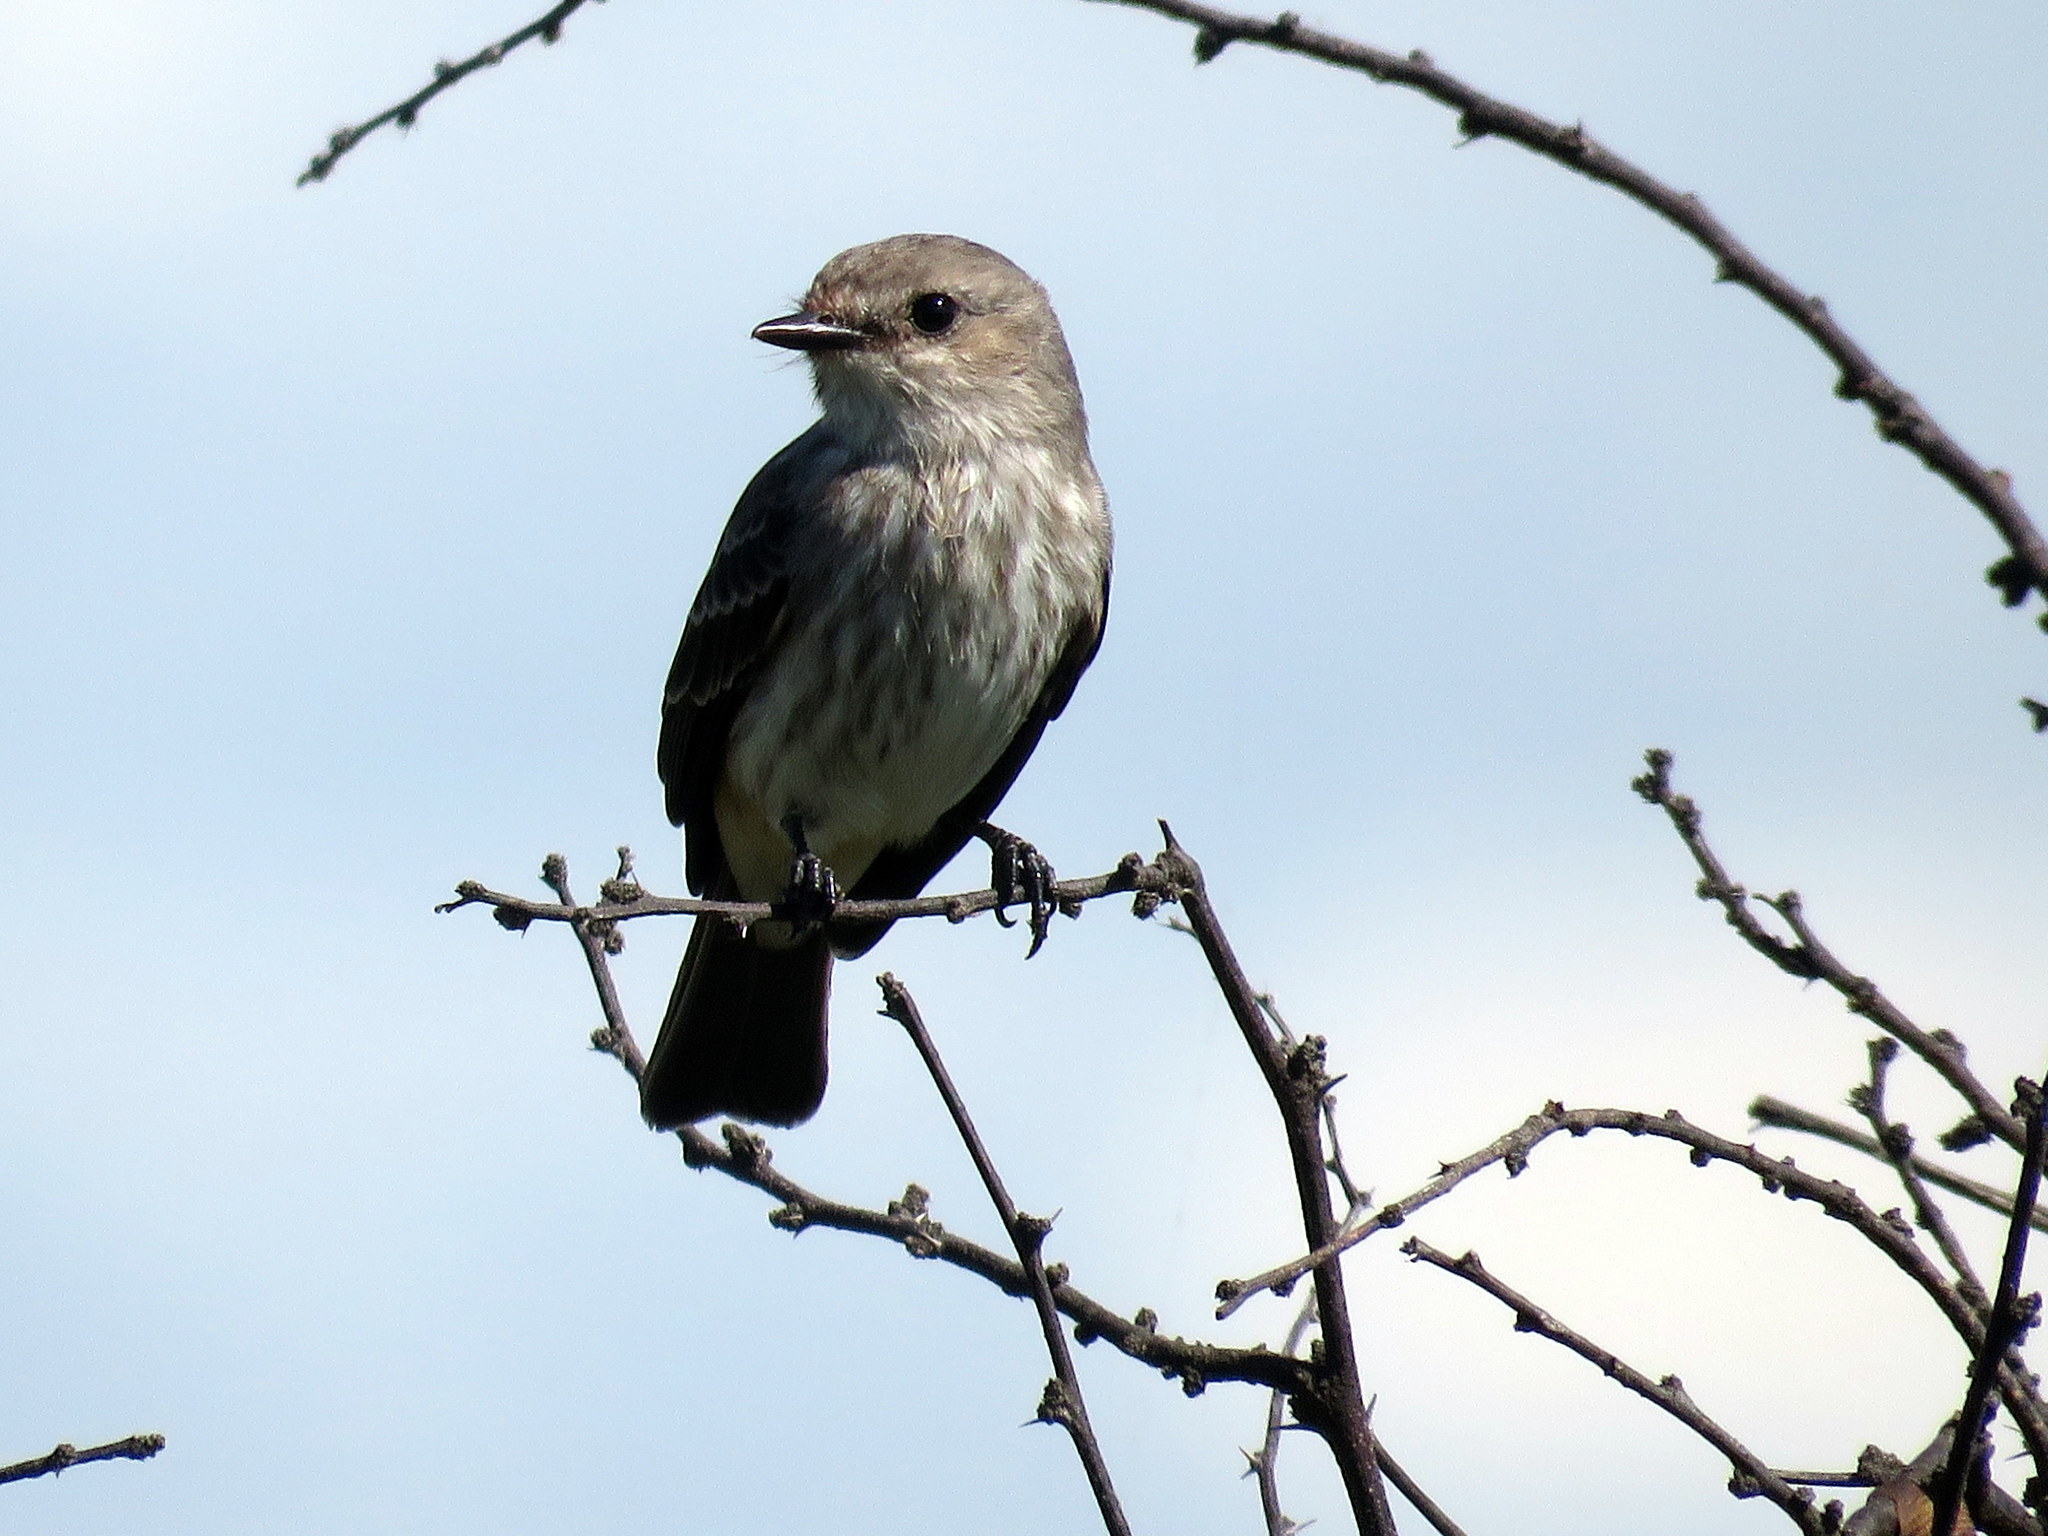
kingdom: Animalia
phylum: Chordata
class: Aves
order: Passeriformes
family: Tyrannidae
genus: Pyrocephalus
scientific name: Pyrocephalus rubinus
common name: Vermilion flycatcher
